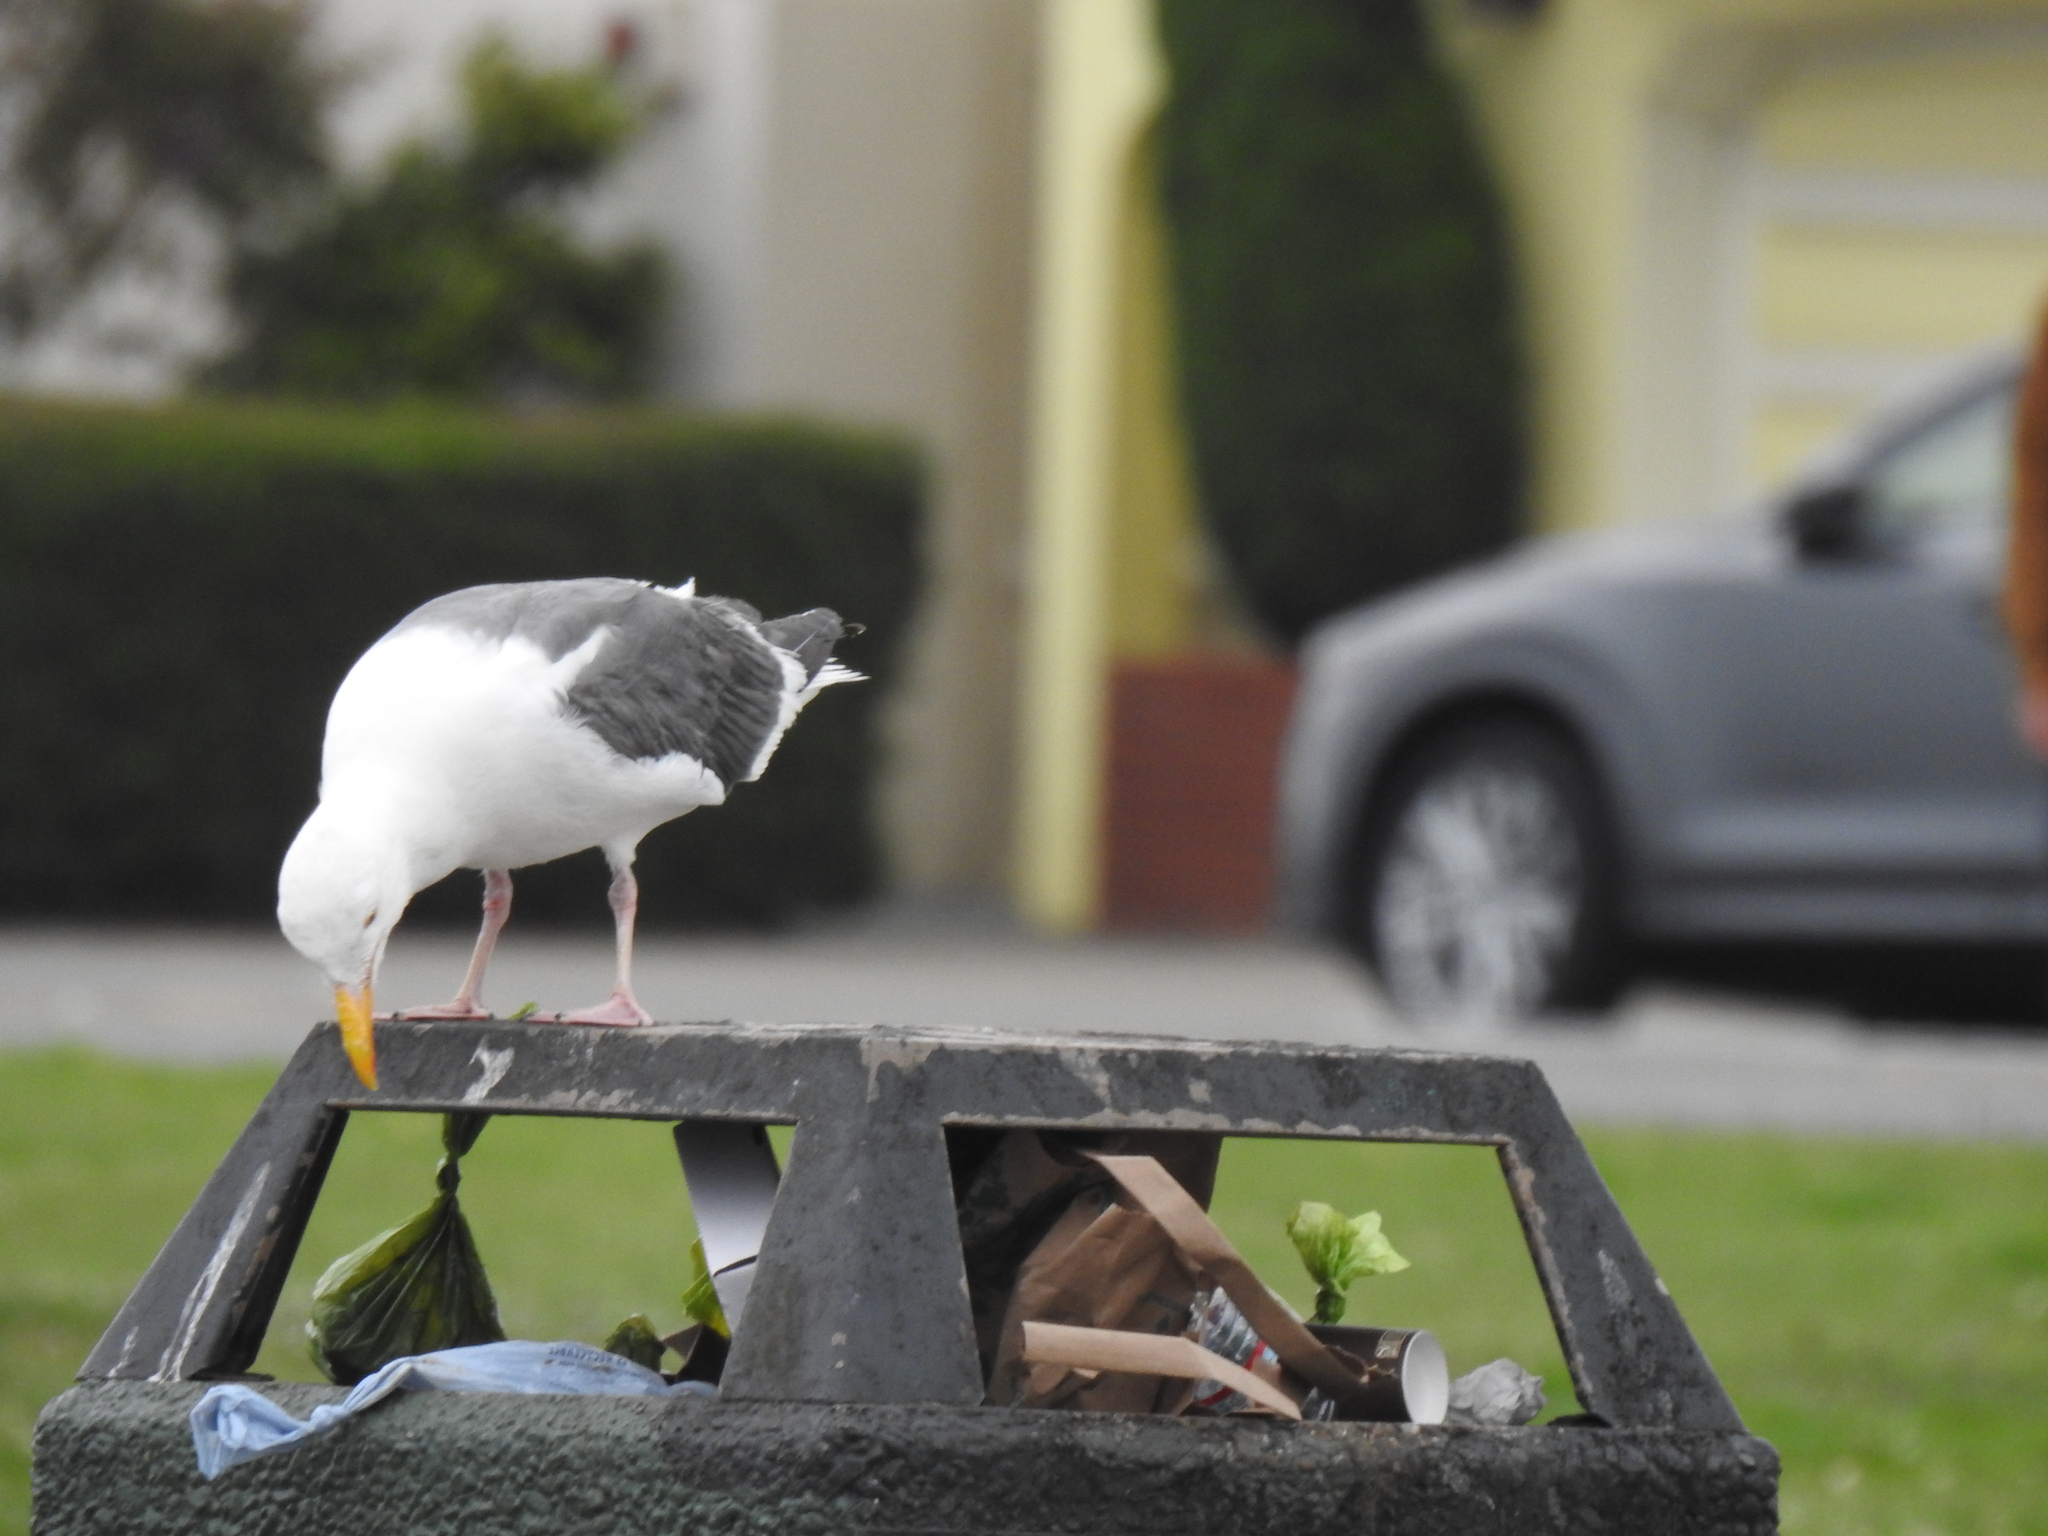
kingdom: Animalia
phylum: Chordata
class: Aves
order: Charadriiformes
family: Laridae
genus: Larus
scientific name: Larus occidentalis
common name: Western gull
